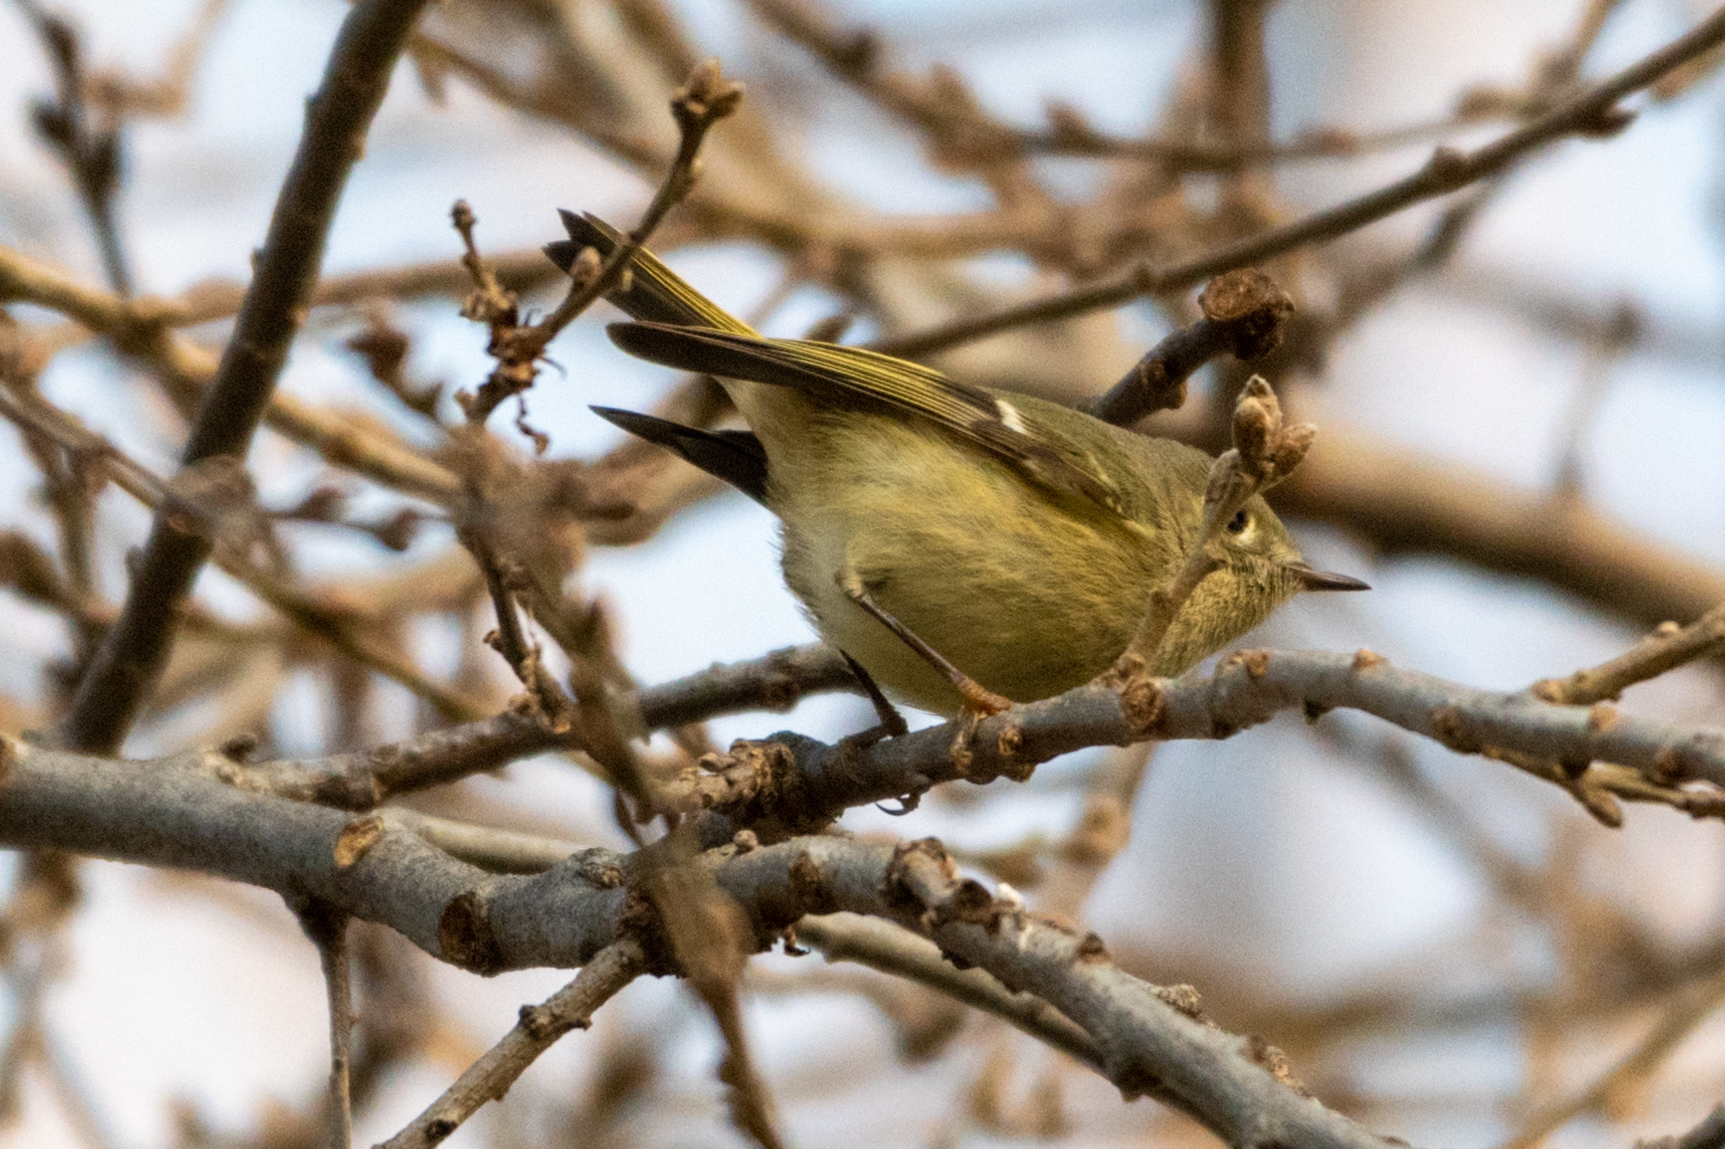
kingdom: Animalia
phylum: Chordata
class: Aves
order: Passeriformes
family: Regulidae
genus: Regulus
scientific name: Regulus calendula
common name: Ruby-crowned kinglet
